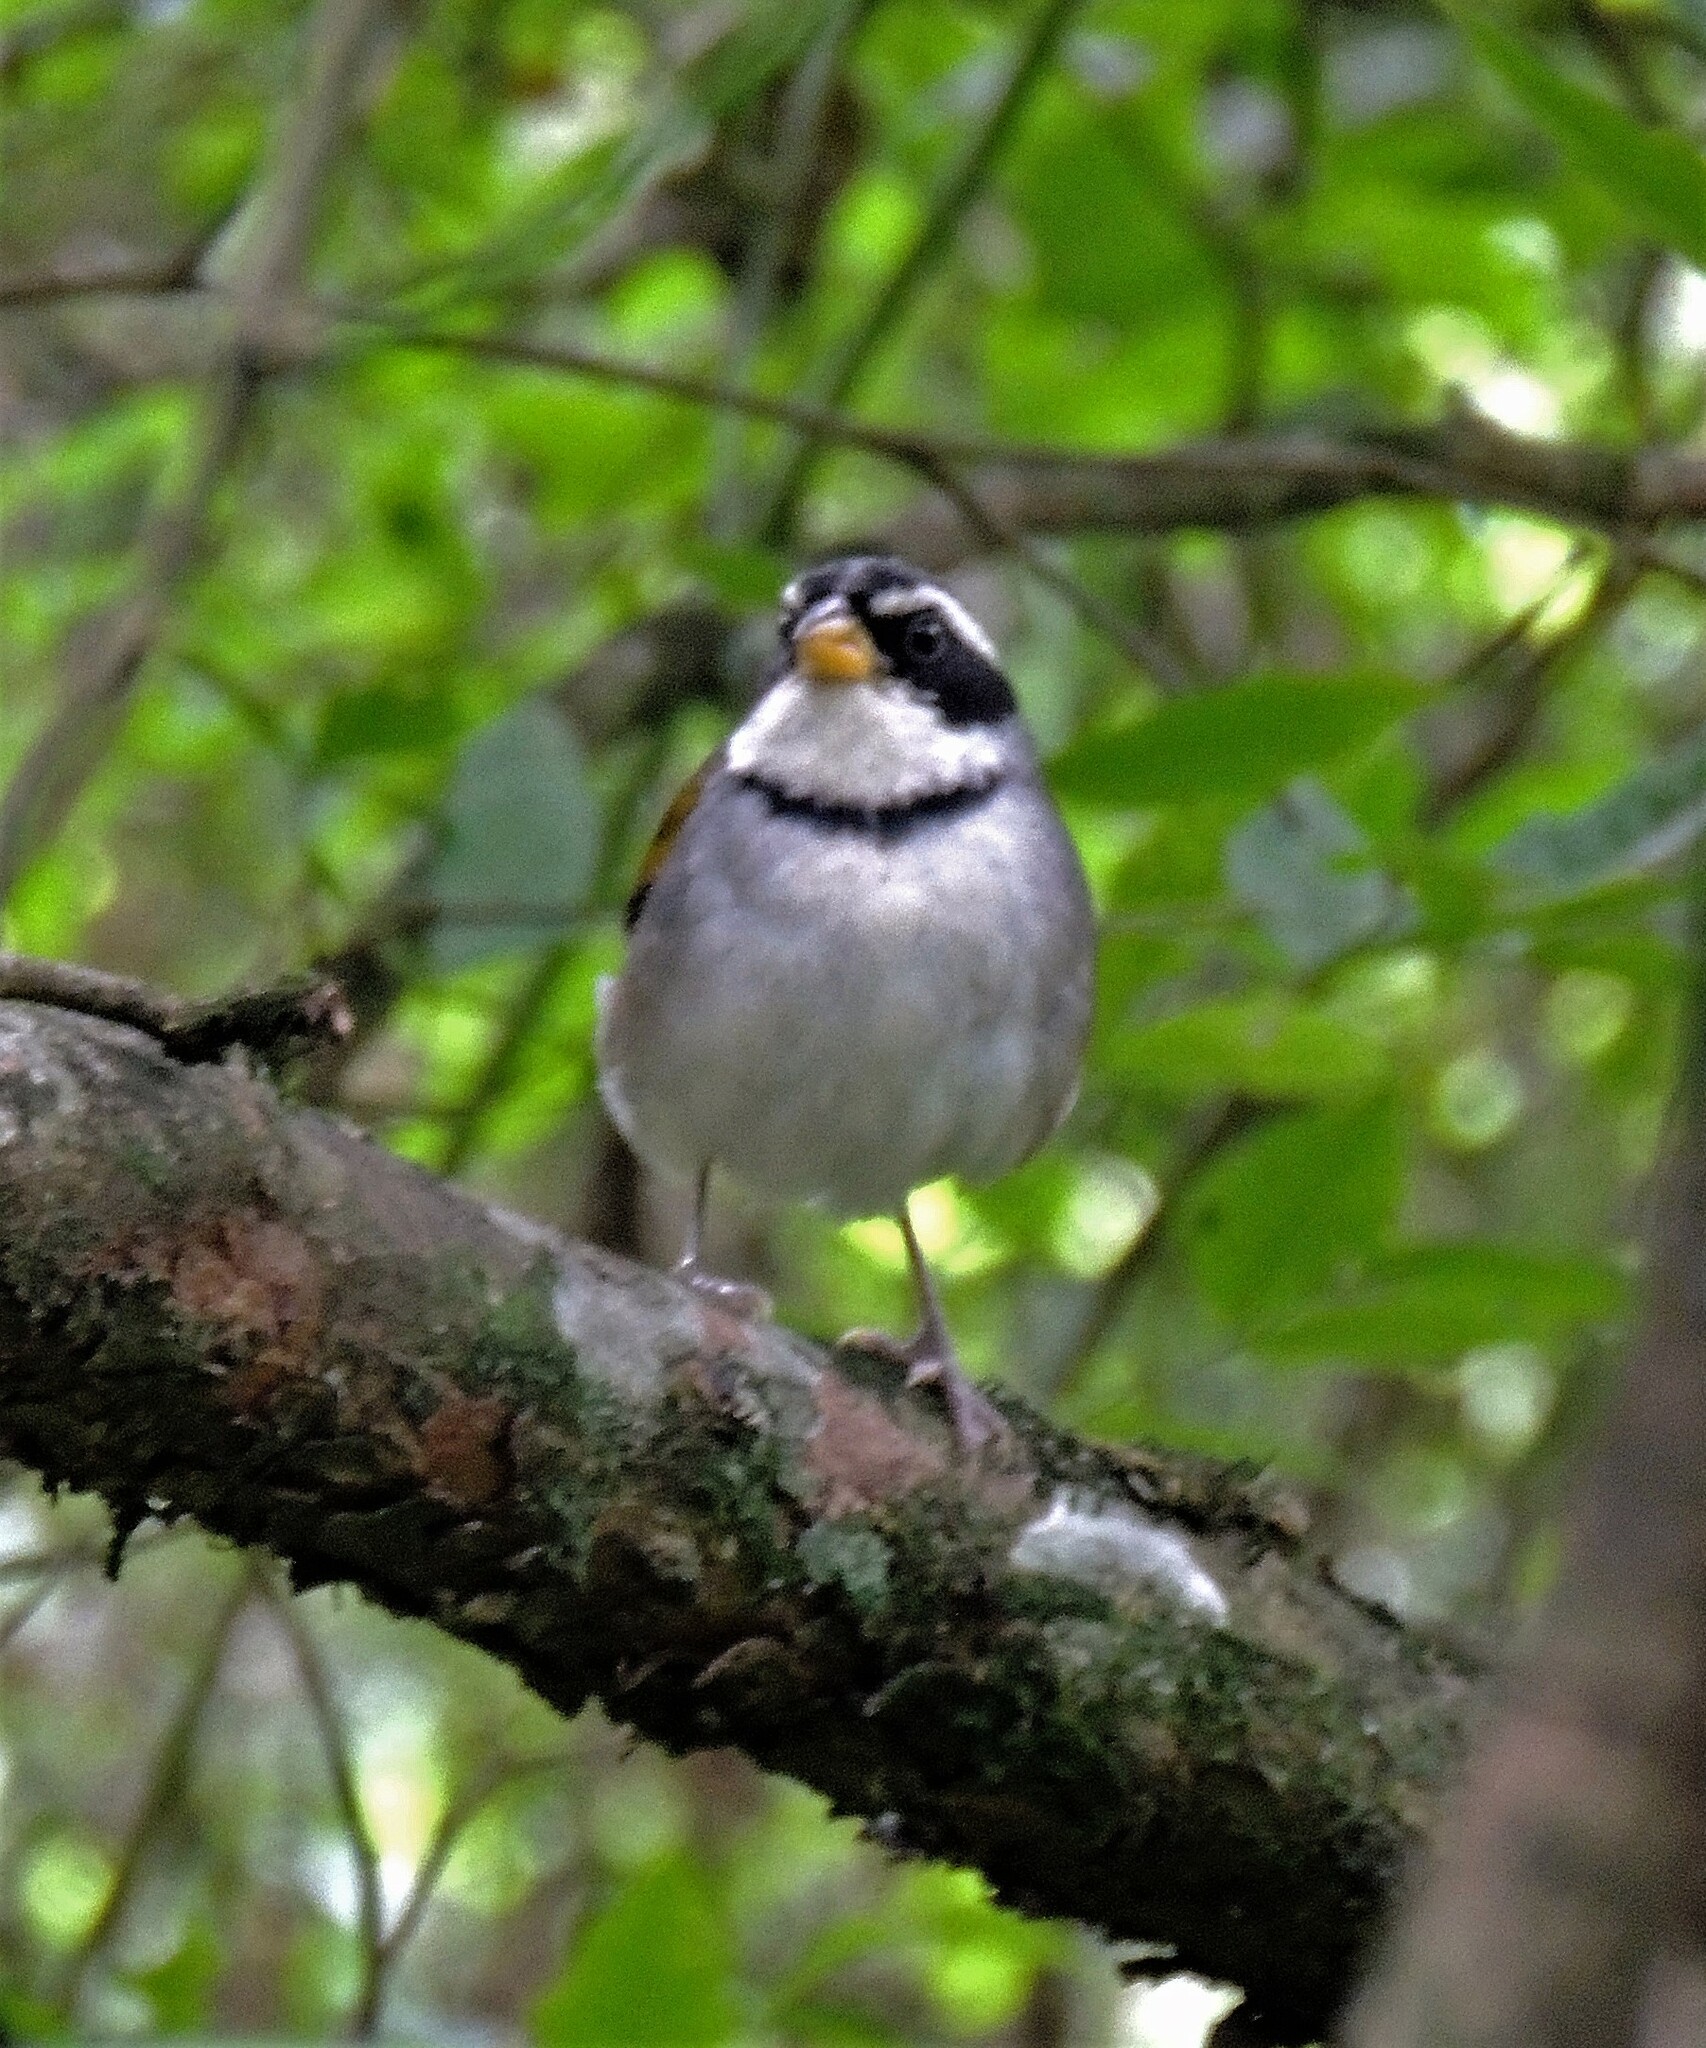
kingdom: Animalia
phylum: Chordata
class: Aves
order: Passeriformes
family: Passerellidae
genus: Arremon
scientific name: Arremon dorbignii
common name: Moss-backed sparrow
